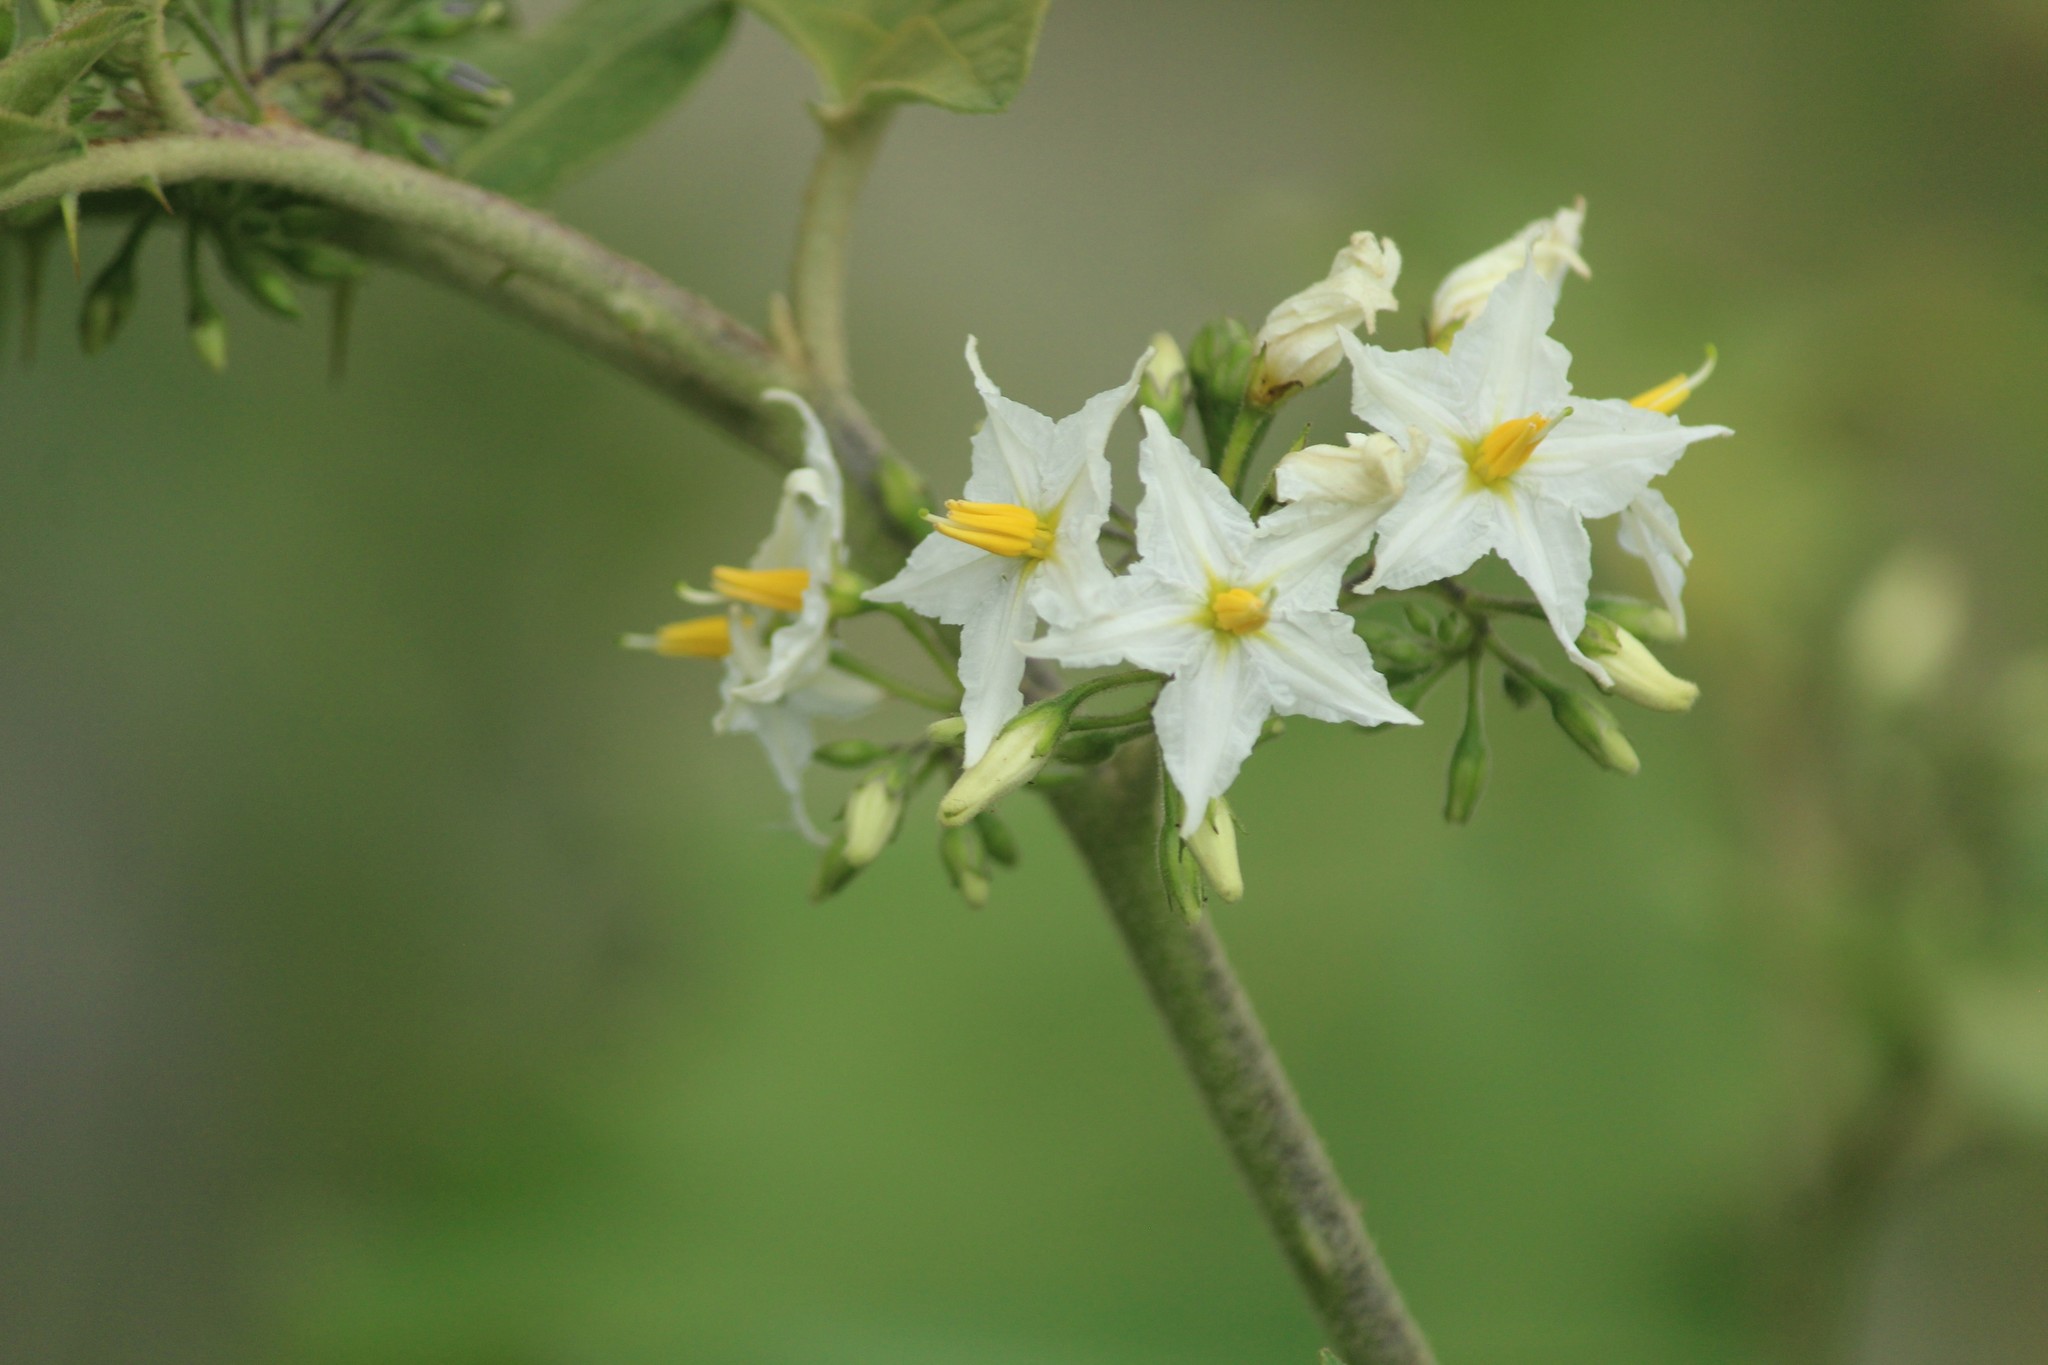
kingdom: Plantae
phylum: Tracheophyta
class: Magnoliopsida
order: Solanales
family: Solanaceae
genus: Solanum
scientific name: Solanum torvum
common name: Turkey berry
